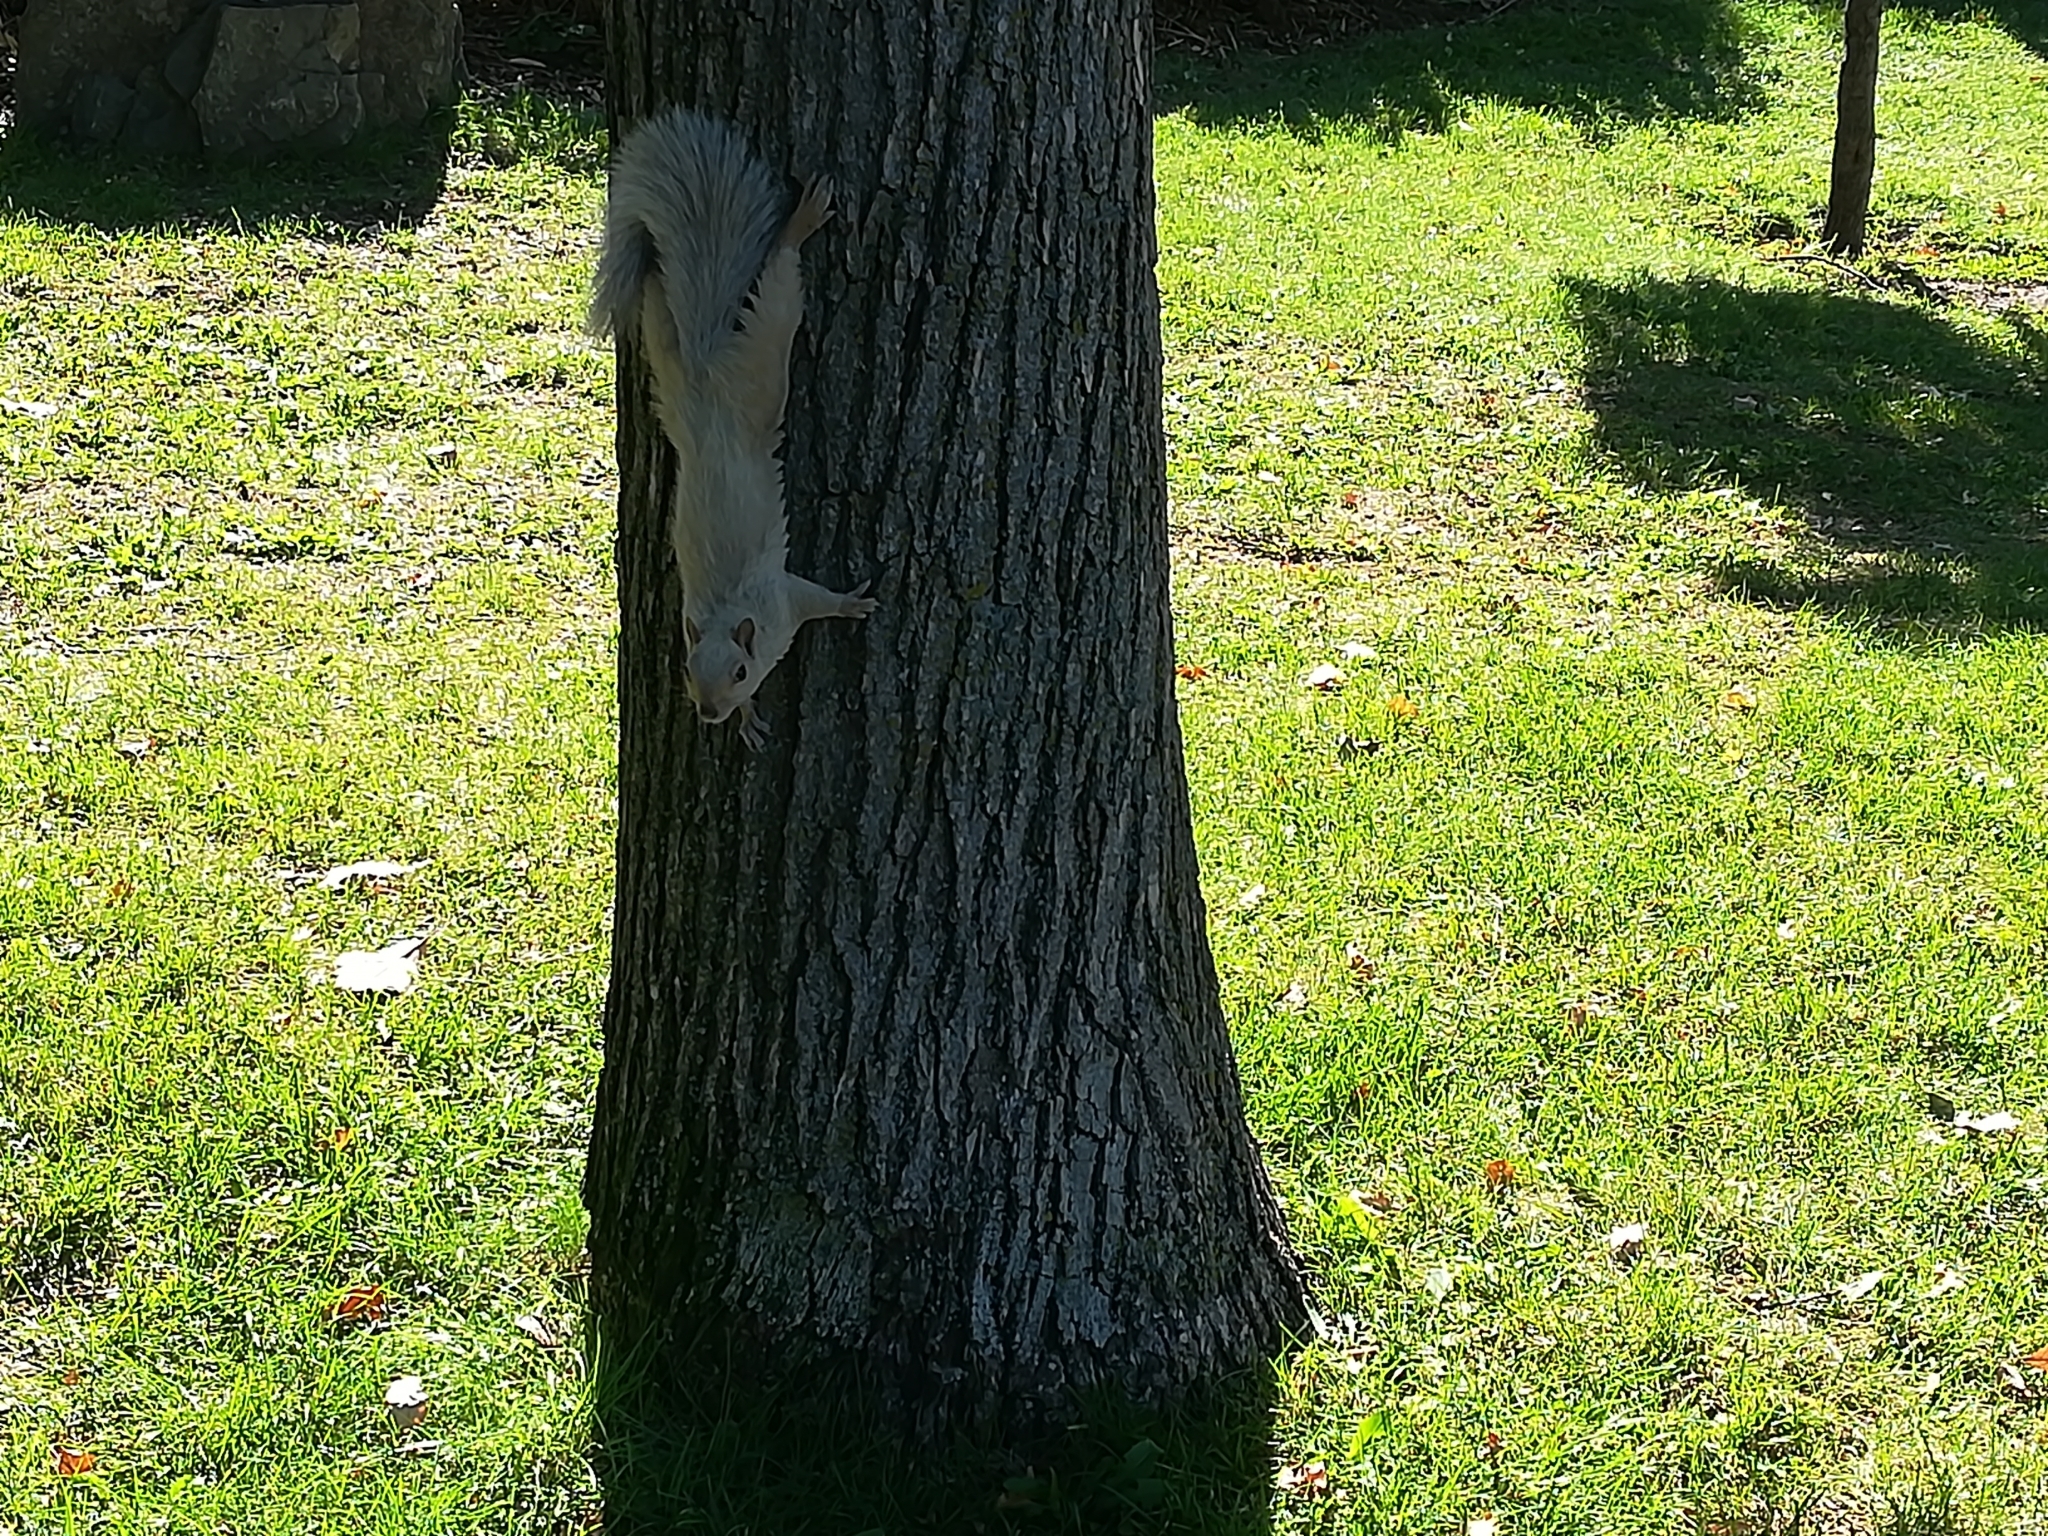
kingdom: Animalia
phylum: Chordata
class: Mammalia
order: Rodentia
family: Sciuridae
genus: Sciurus
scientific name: Sciurus carolinensis
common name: Eastern gray squirrel
